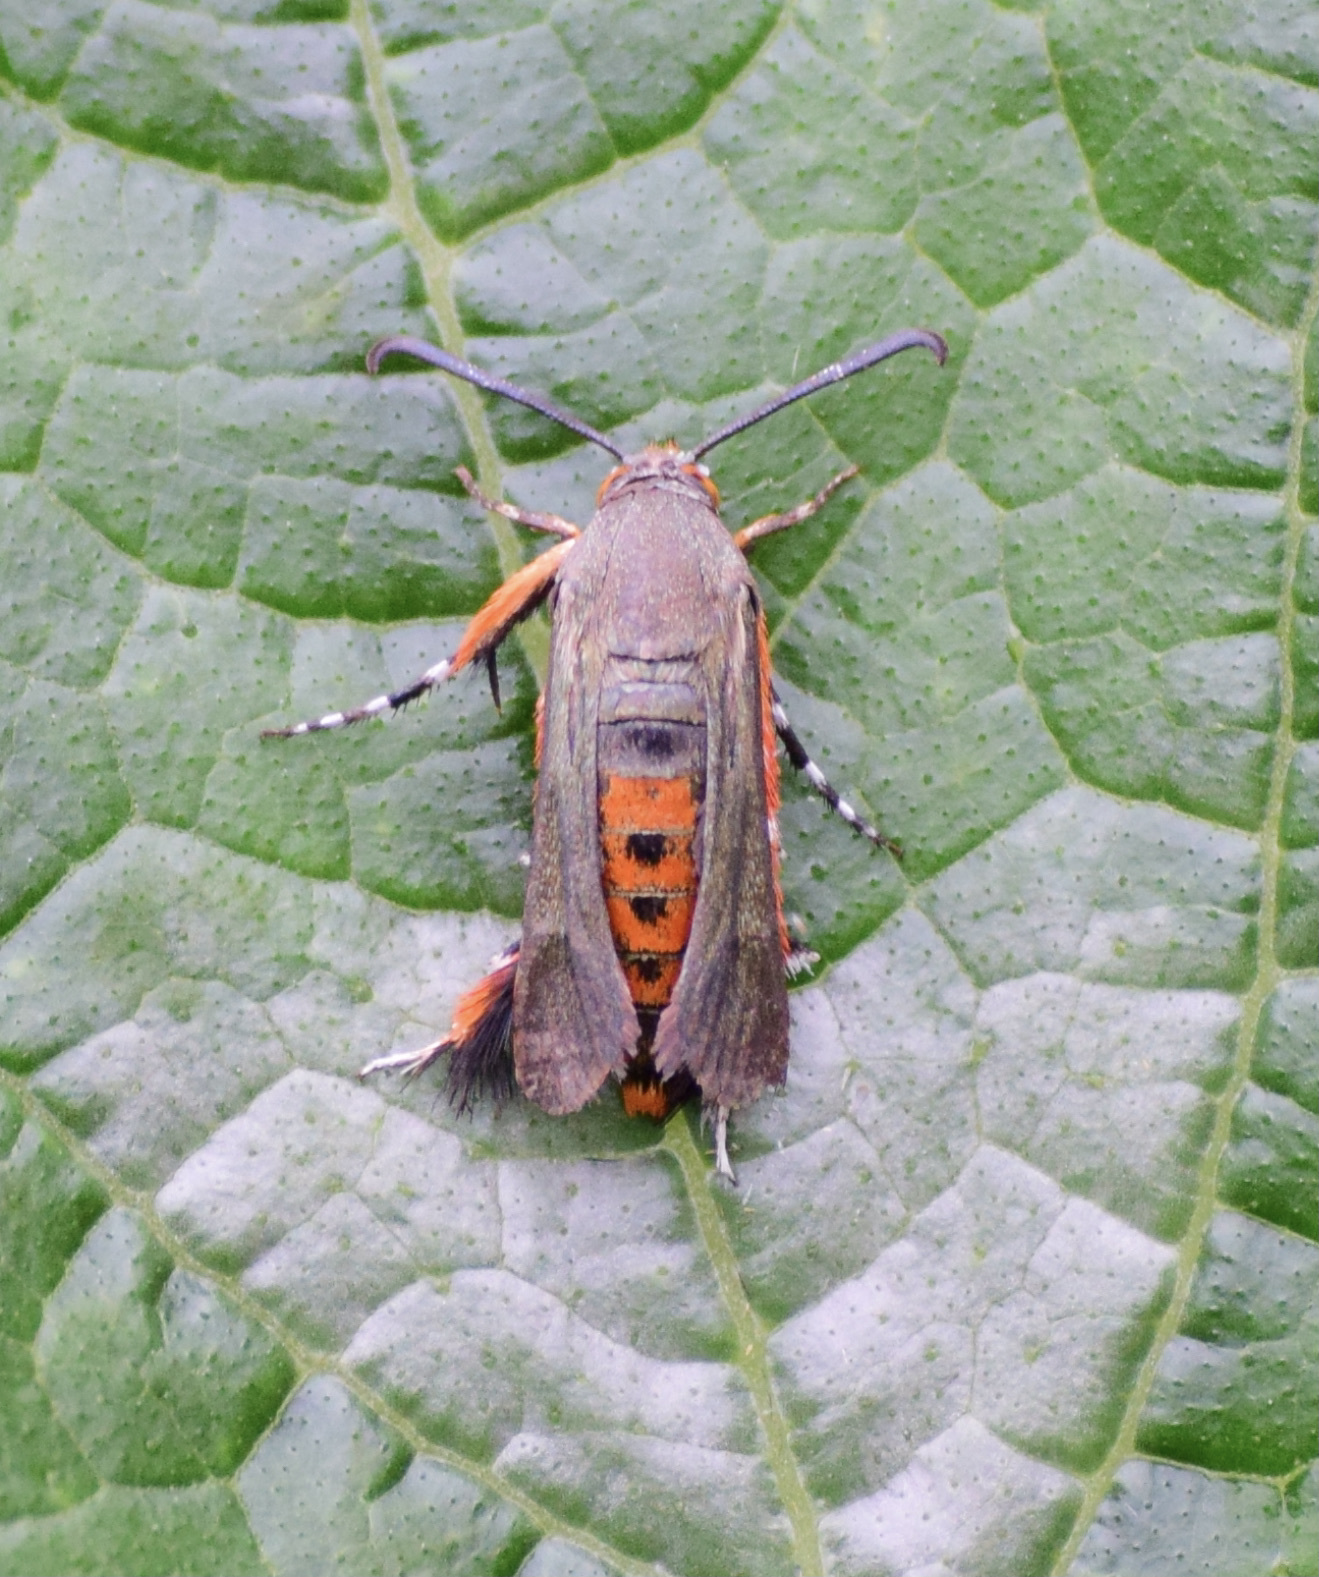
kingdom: Animalia
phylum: Arthropoda
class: Insecta
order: Lepidoptera
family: Sesiidae
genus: Eichlinia
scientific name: Eichlinia cucurbitae
